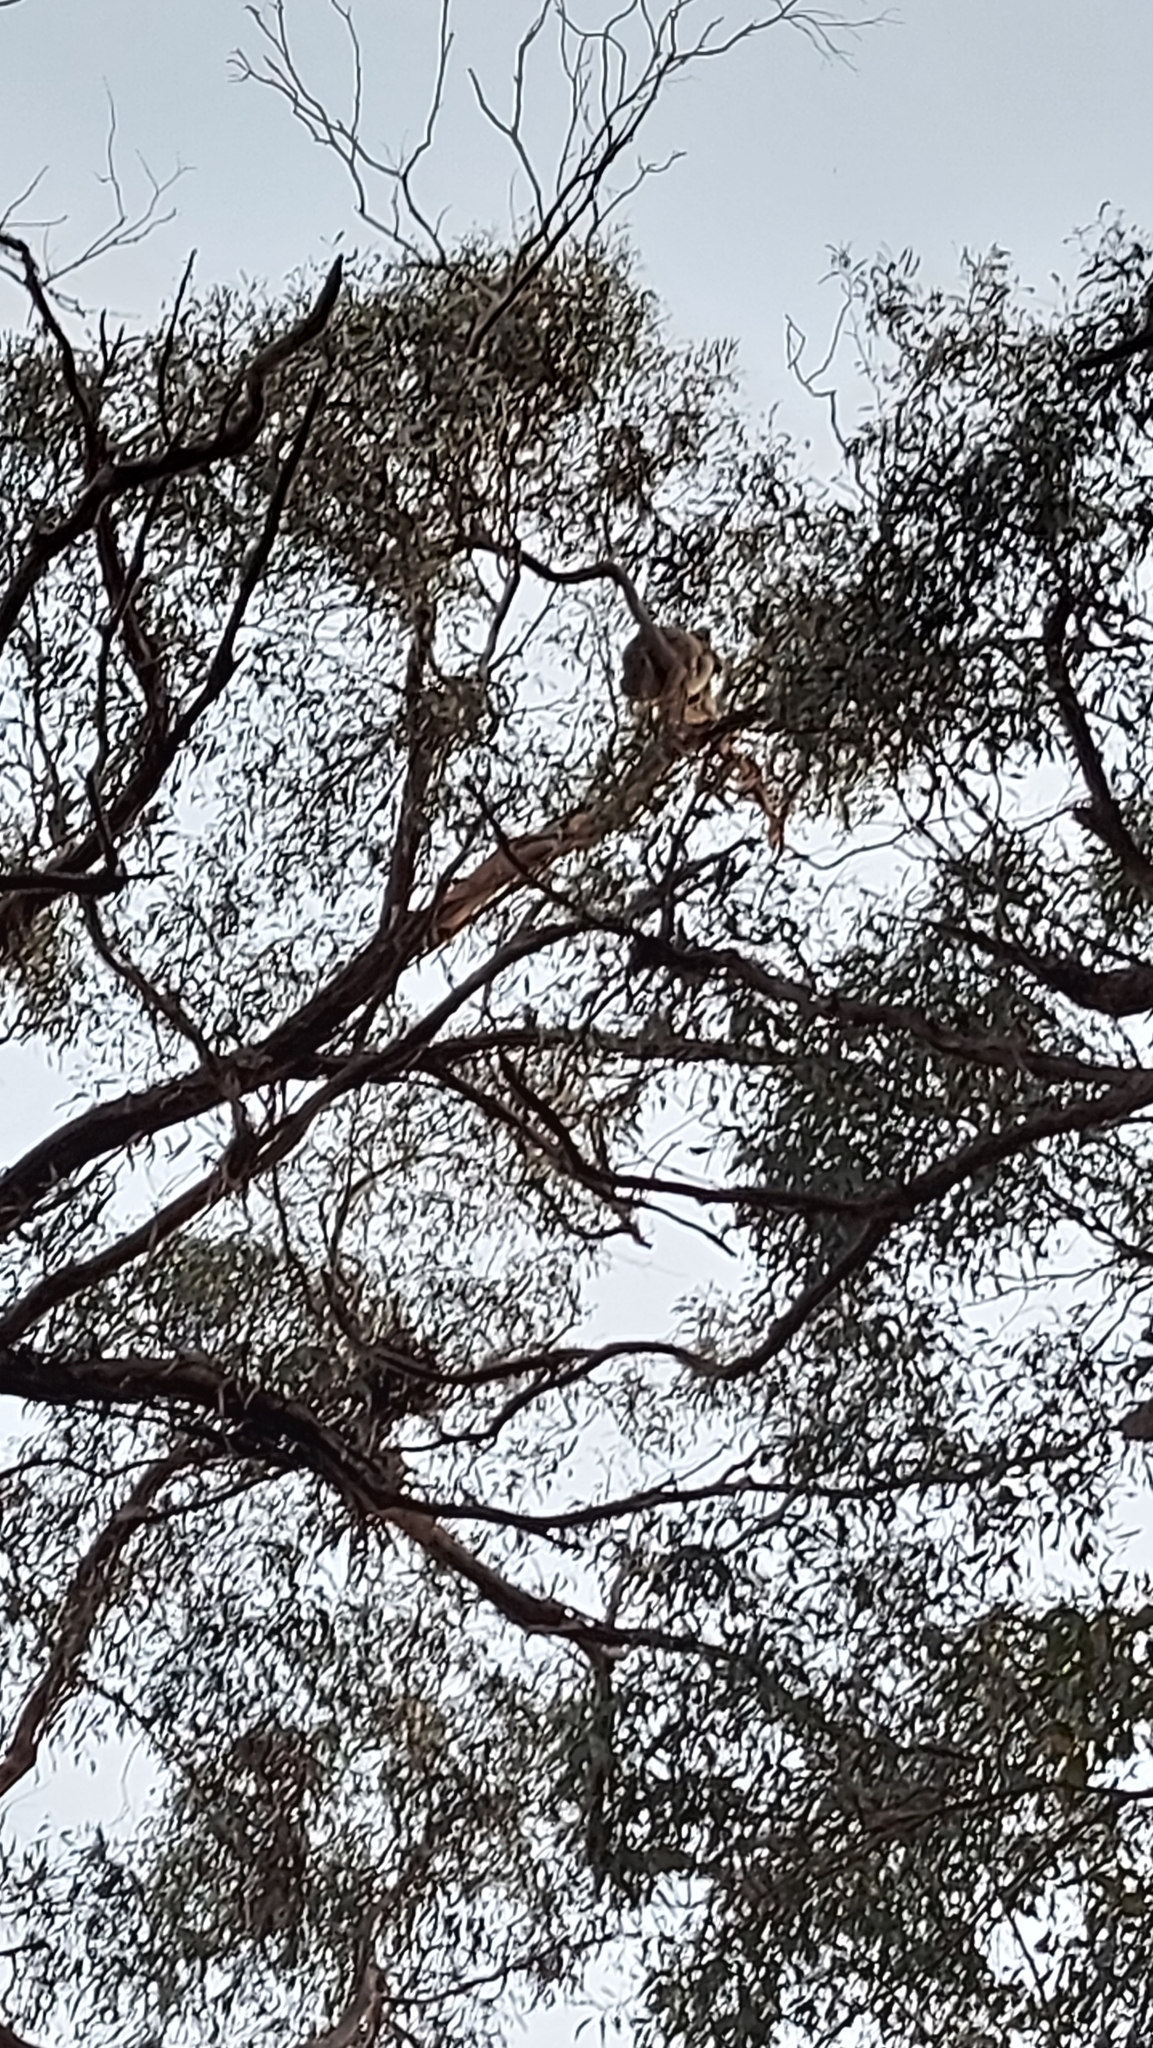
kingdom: Animalia
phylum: Chordata
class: Mammalia
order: Diprotodontia
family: Phascolarctidae
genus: Phascolarctos
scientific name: Phascolarctos cinereus
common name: Koala
